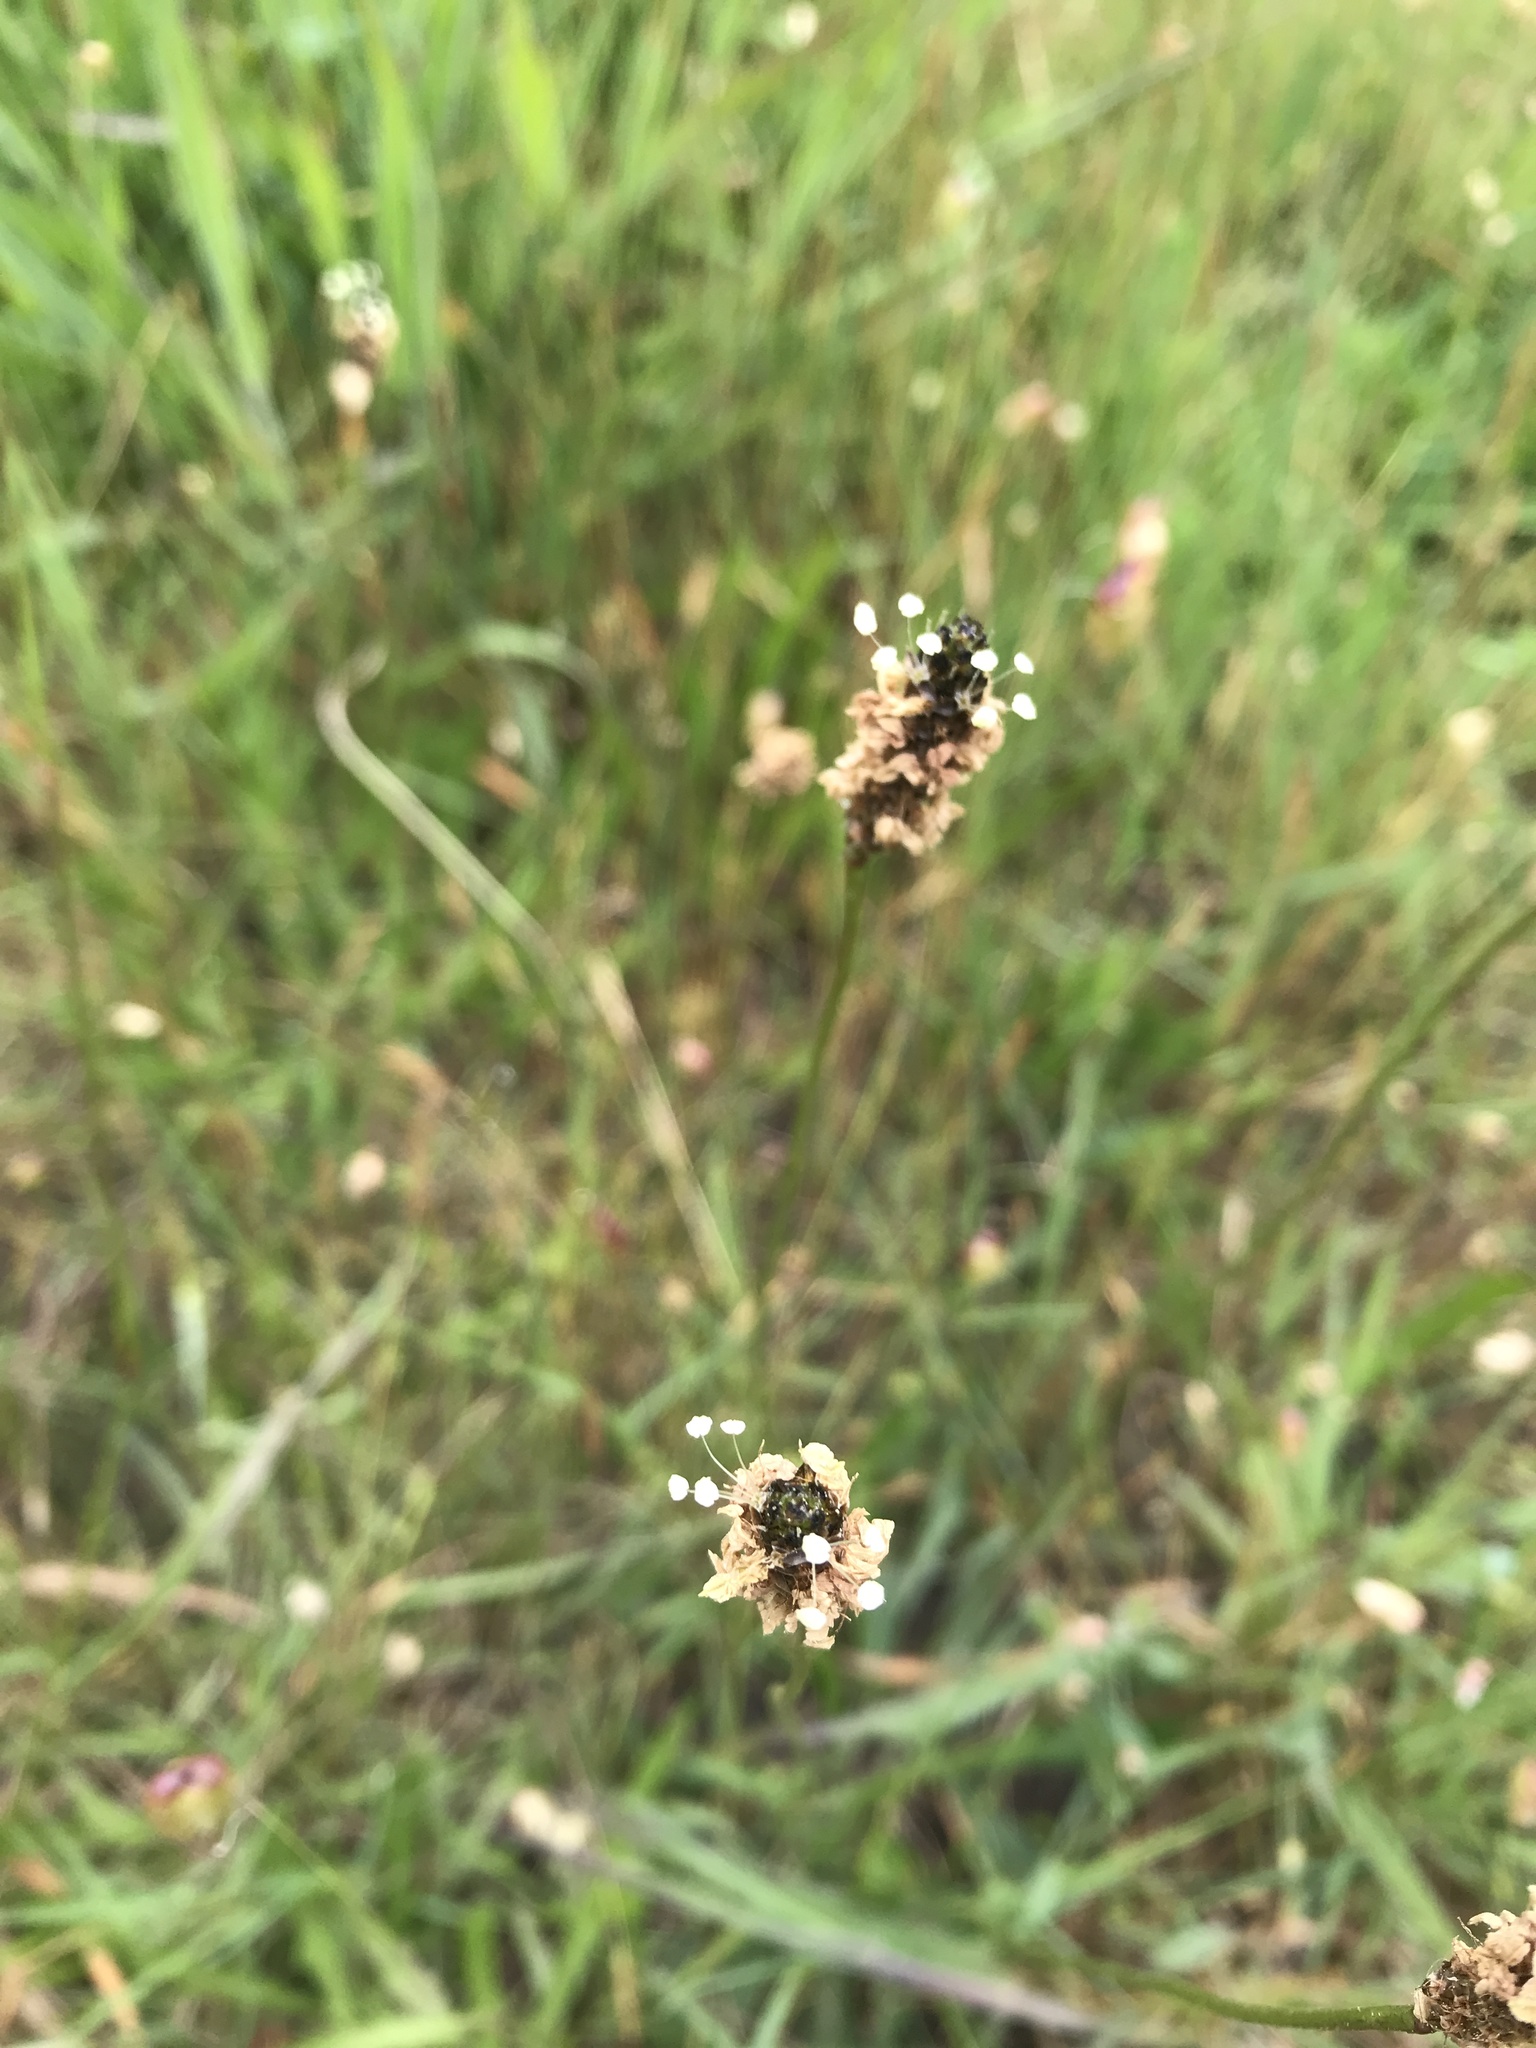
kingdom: Plantae
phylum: Tracheophyta
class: Magnoliopsida
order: Lamiales
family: Plantaginaceae
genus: Plantago
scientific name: Plantago lanceolata
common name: Ribwort plantain
